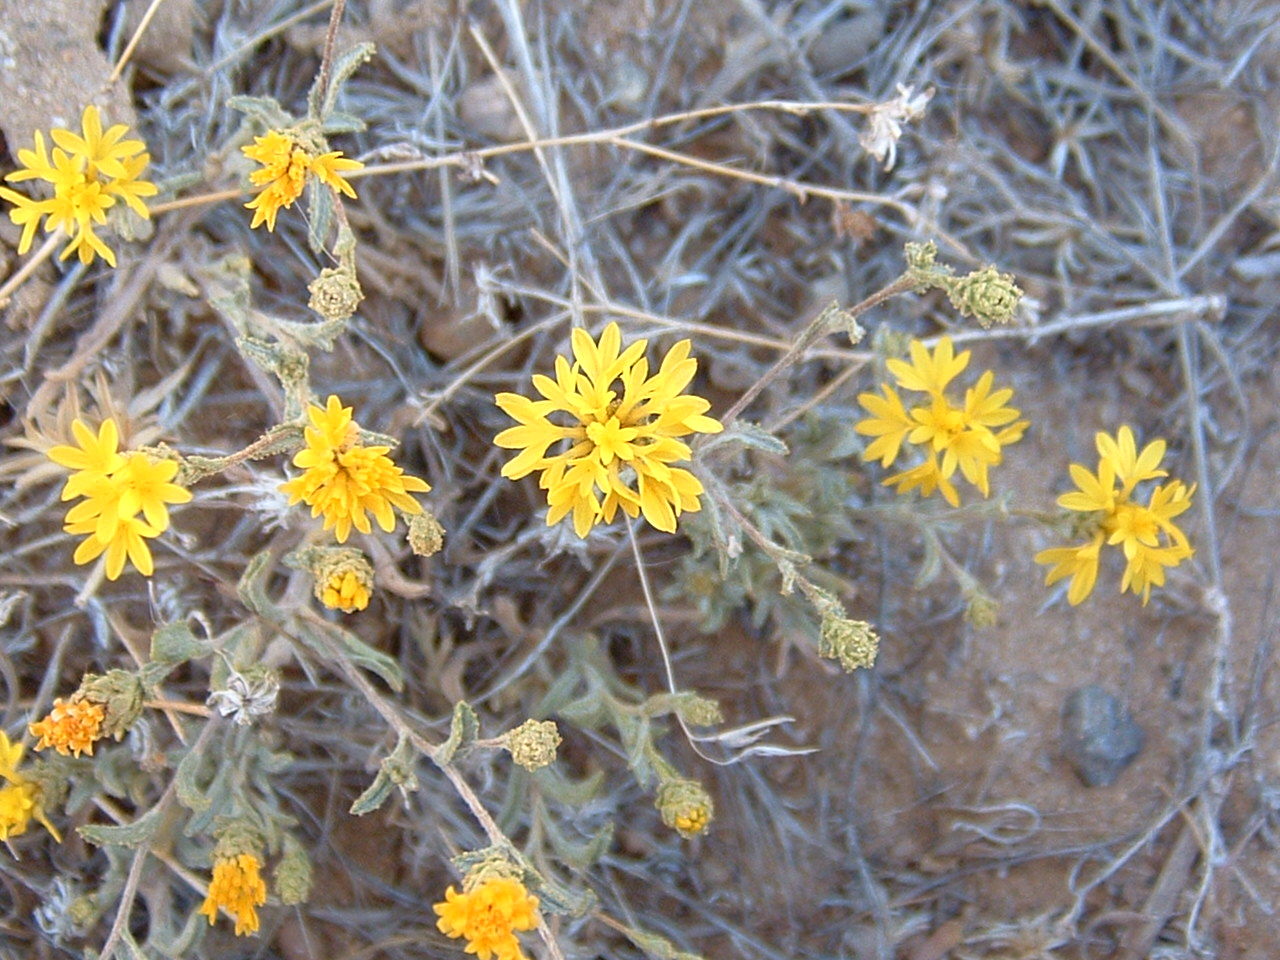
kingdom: Plantae
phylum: Tracheophyta
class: Magnoliopsida
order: Asterales
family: Asteraceae
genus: Lessingia
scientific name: Lessingia glandulifera
